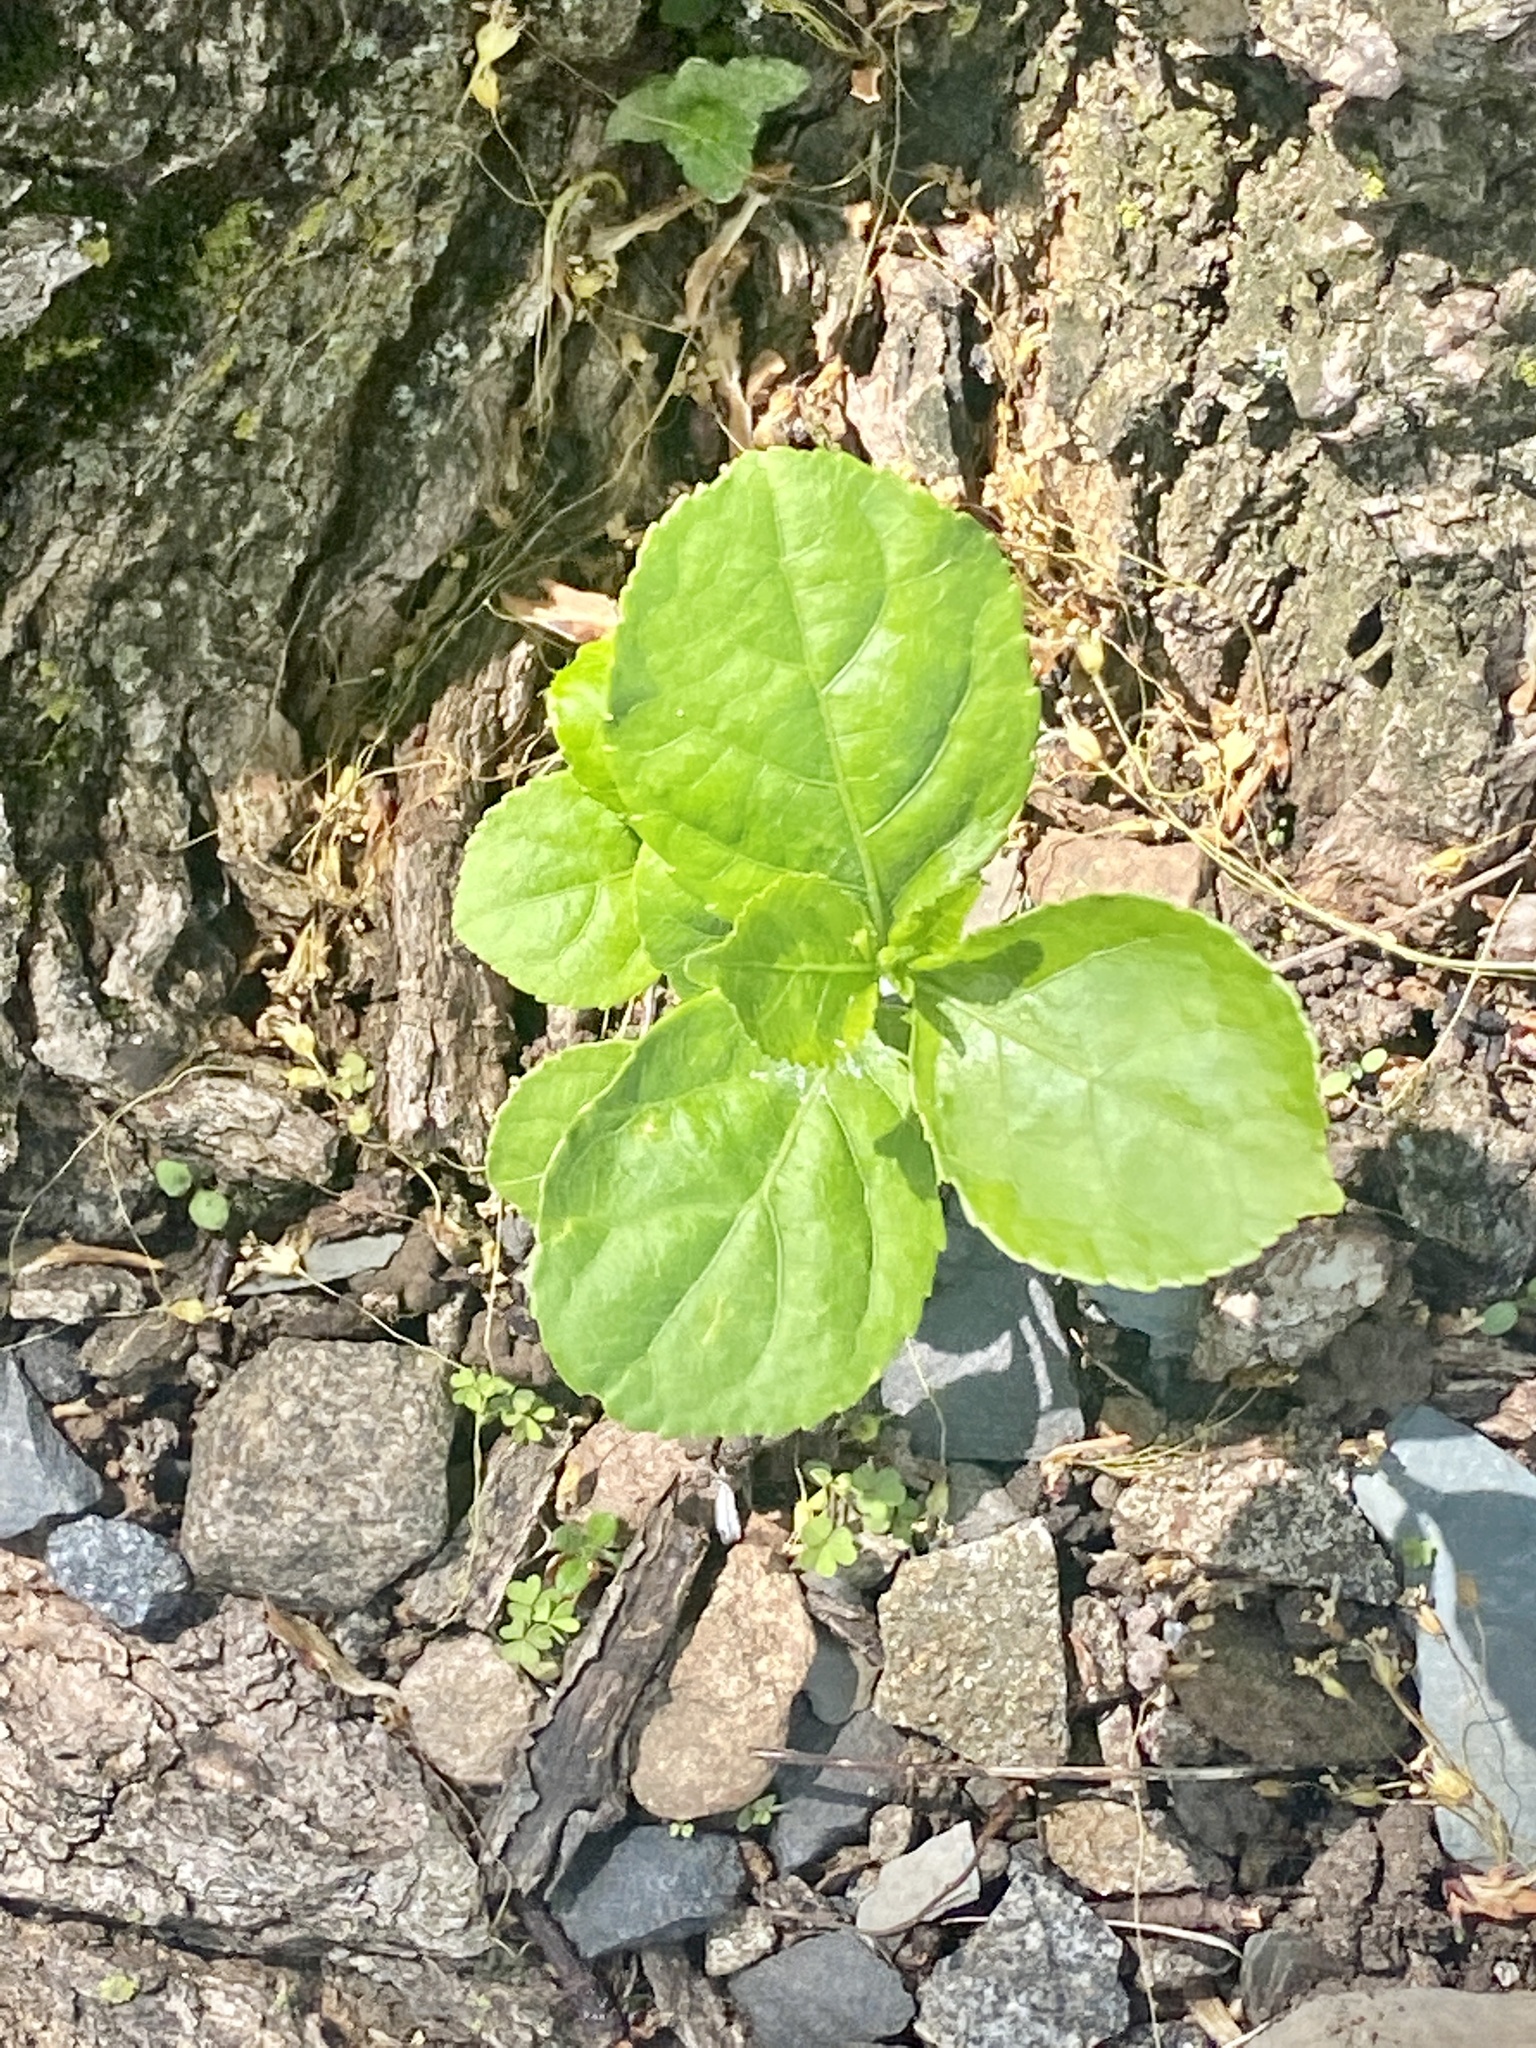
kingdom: Plantae
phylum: Tracheophyta
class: Magnoliopsida
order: Celastrales
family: Celastraceae
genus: Celastrus
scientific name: Celastrus orbiculatus
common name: Oriental bittersweet
